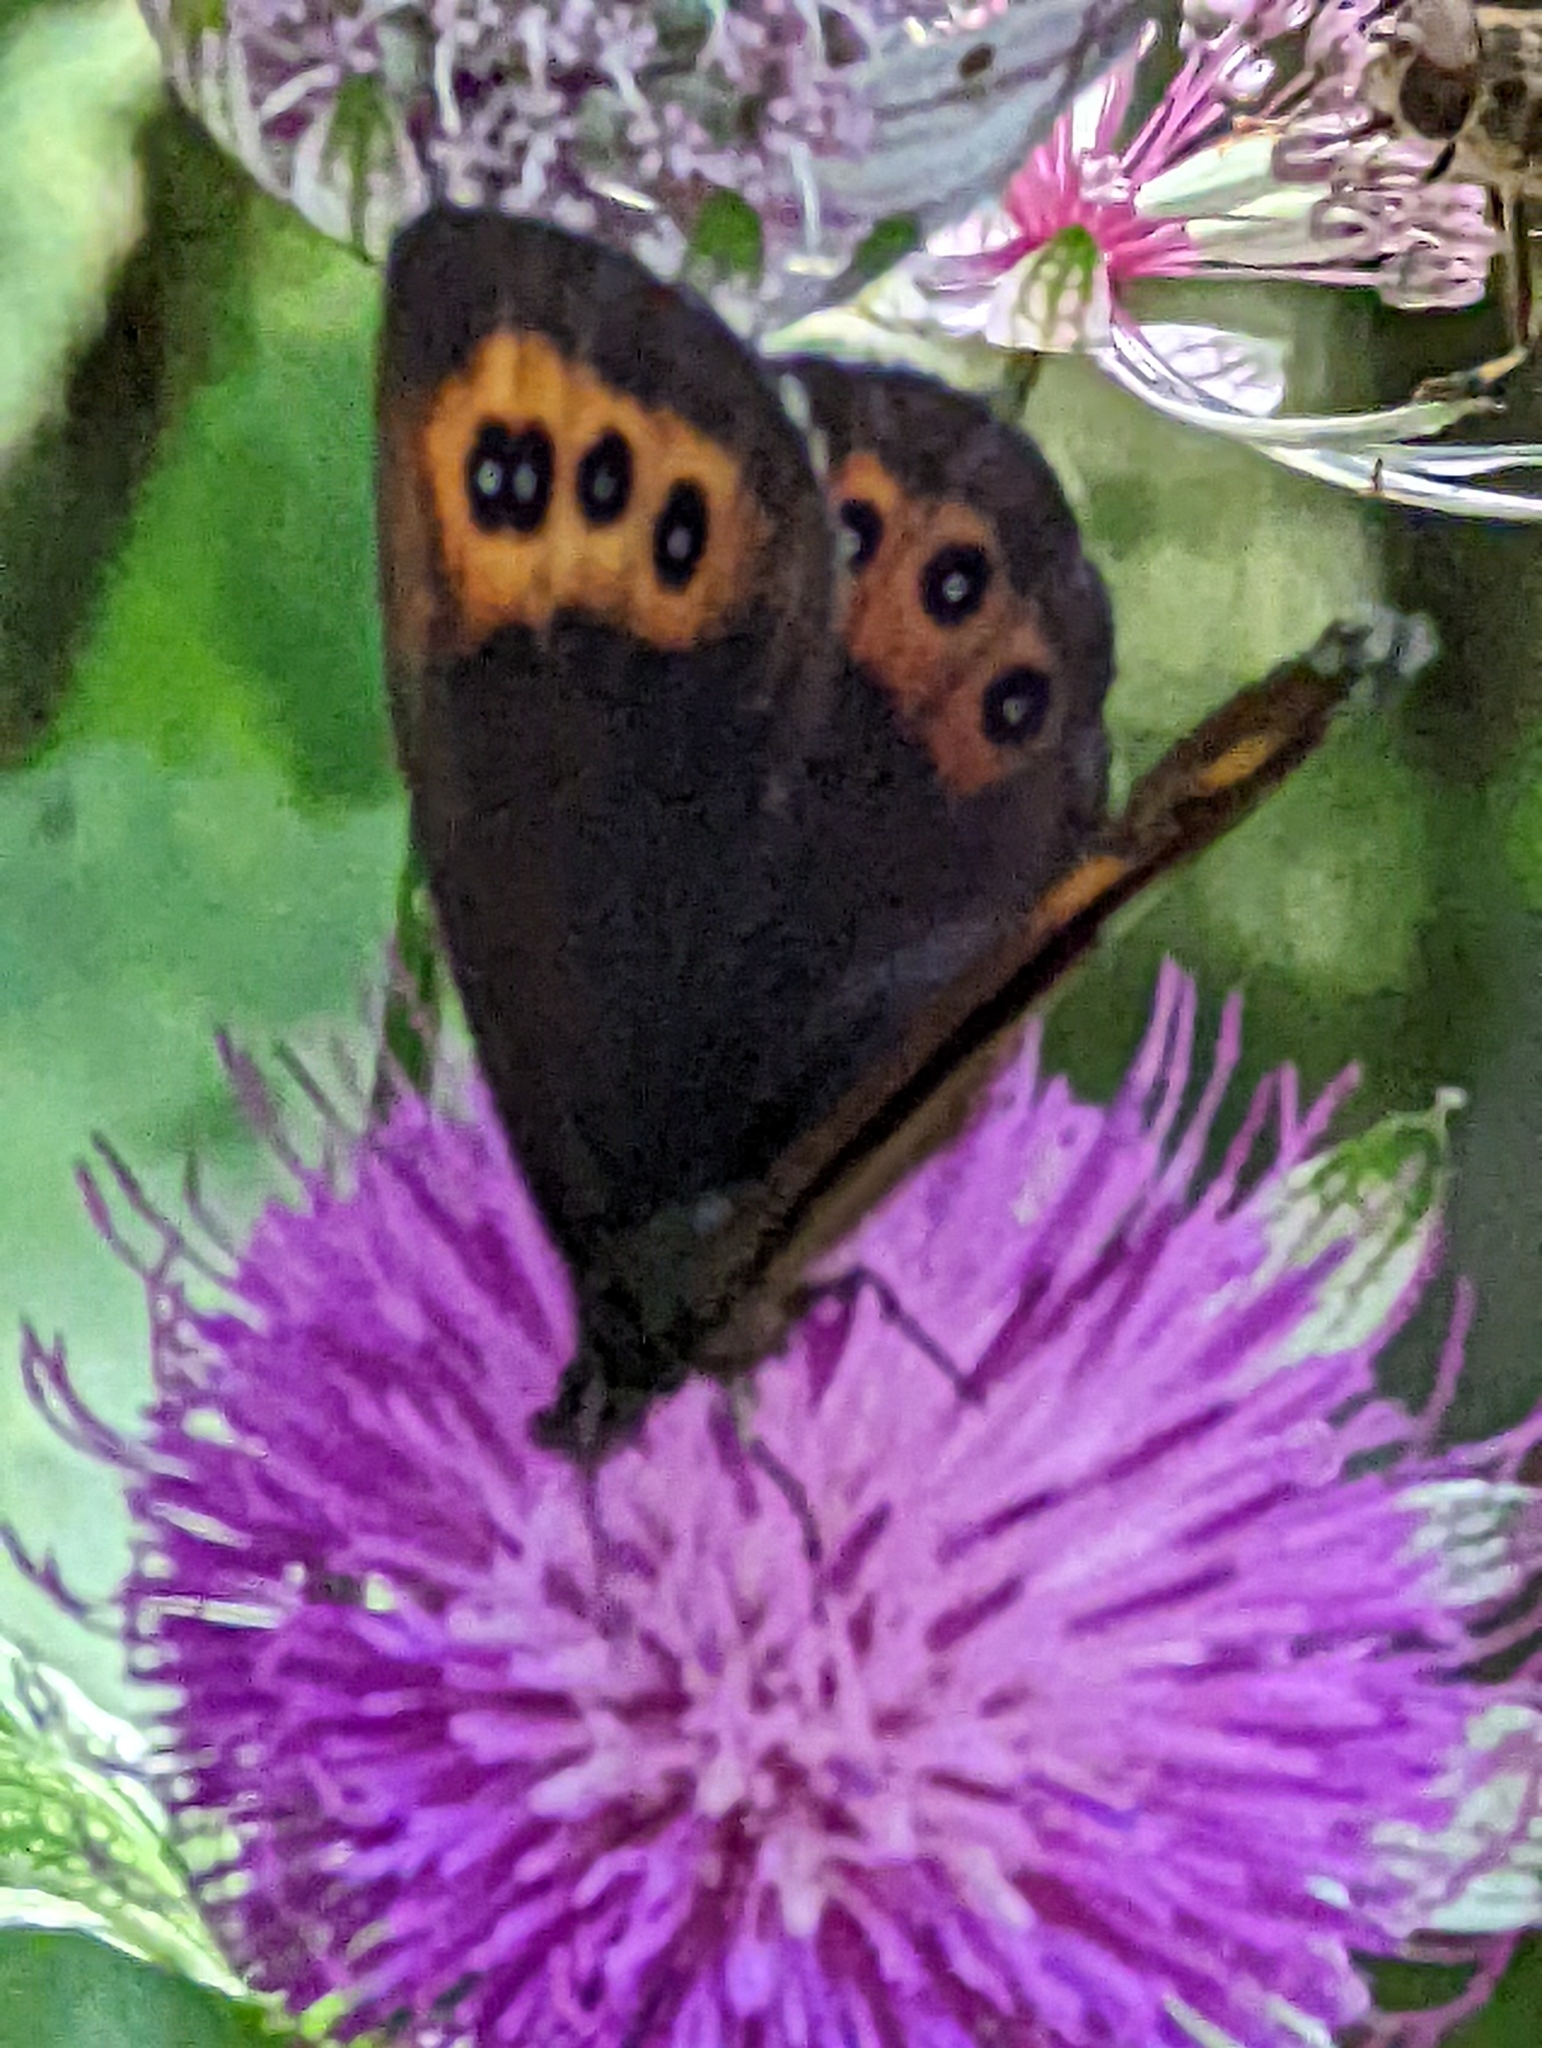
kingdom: Animalia
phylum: Arthropoda
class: Insecta
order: Lepidoptera
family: Nymphalidae
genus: Erebia
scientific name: Erebia ligea
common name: Arran brown
